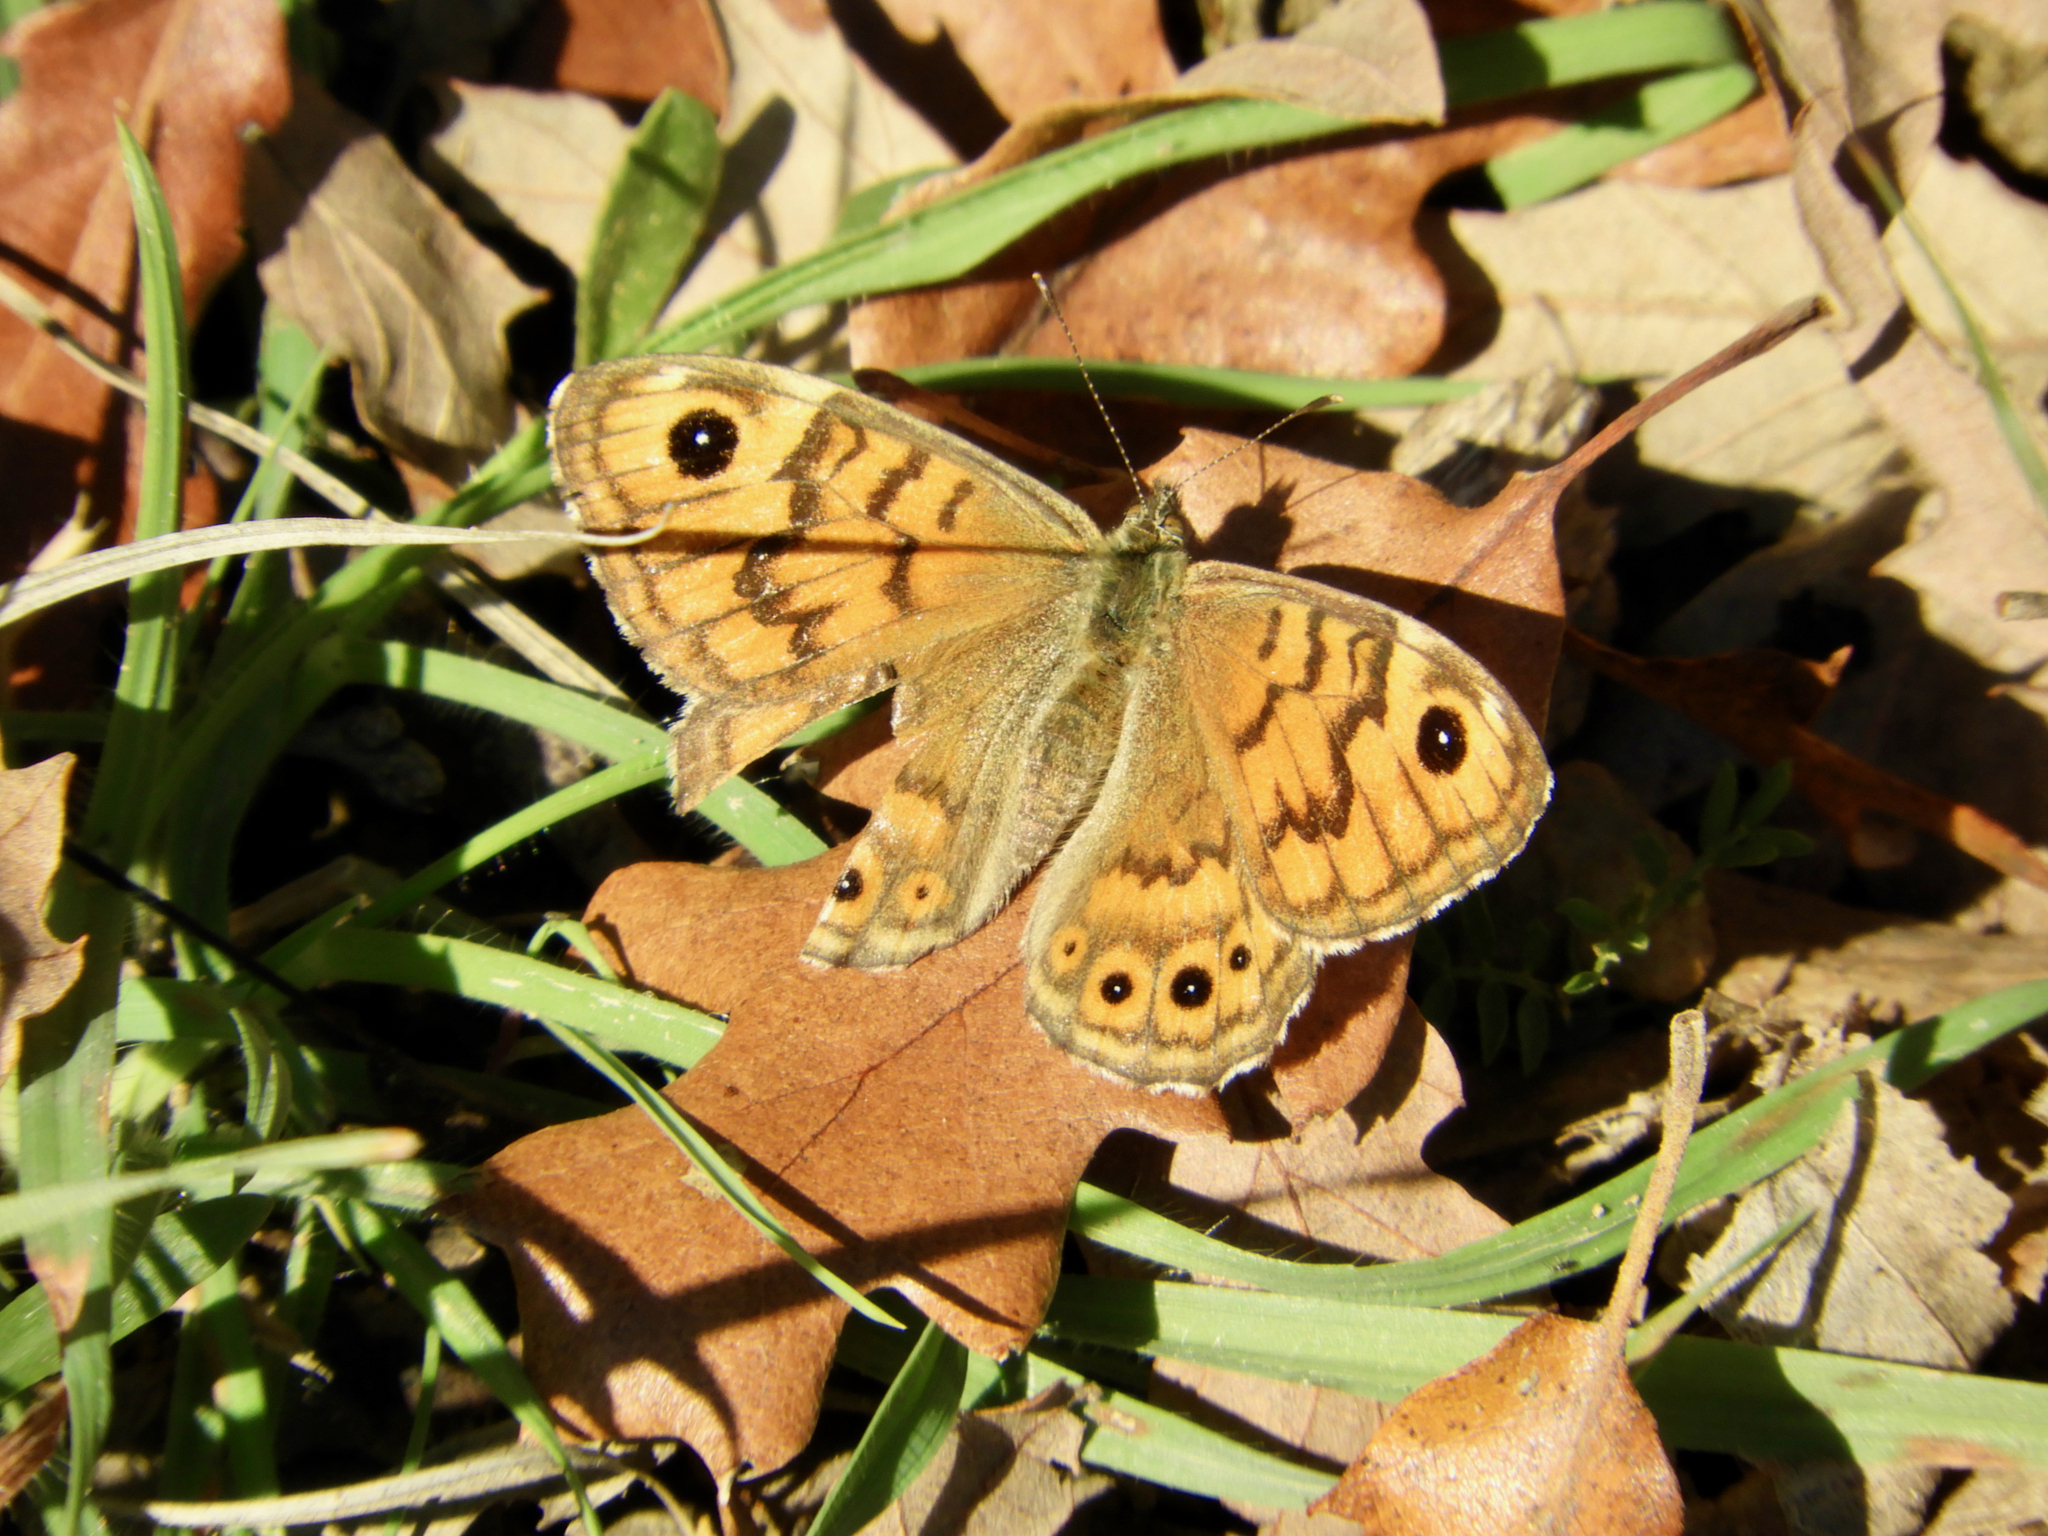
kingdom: Animalia
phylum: Arthropoda
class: Insecta
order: Lepidoptera
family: Nymphalidae
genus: Pararge
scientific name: Pararge Lasiommata megera
